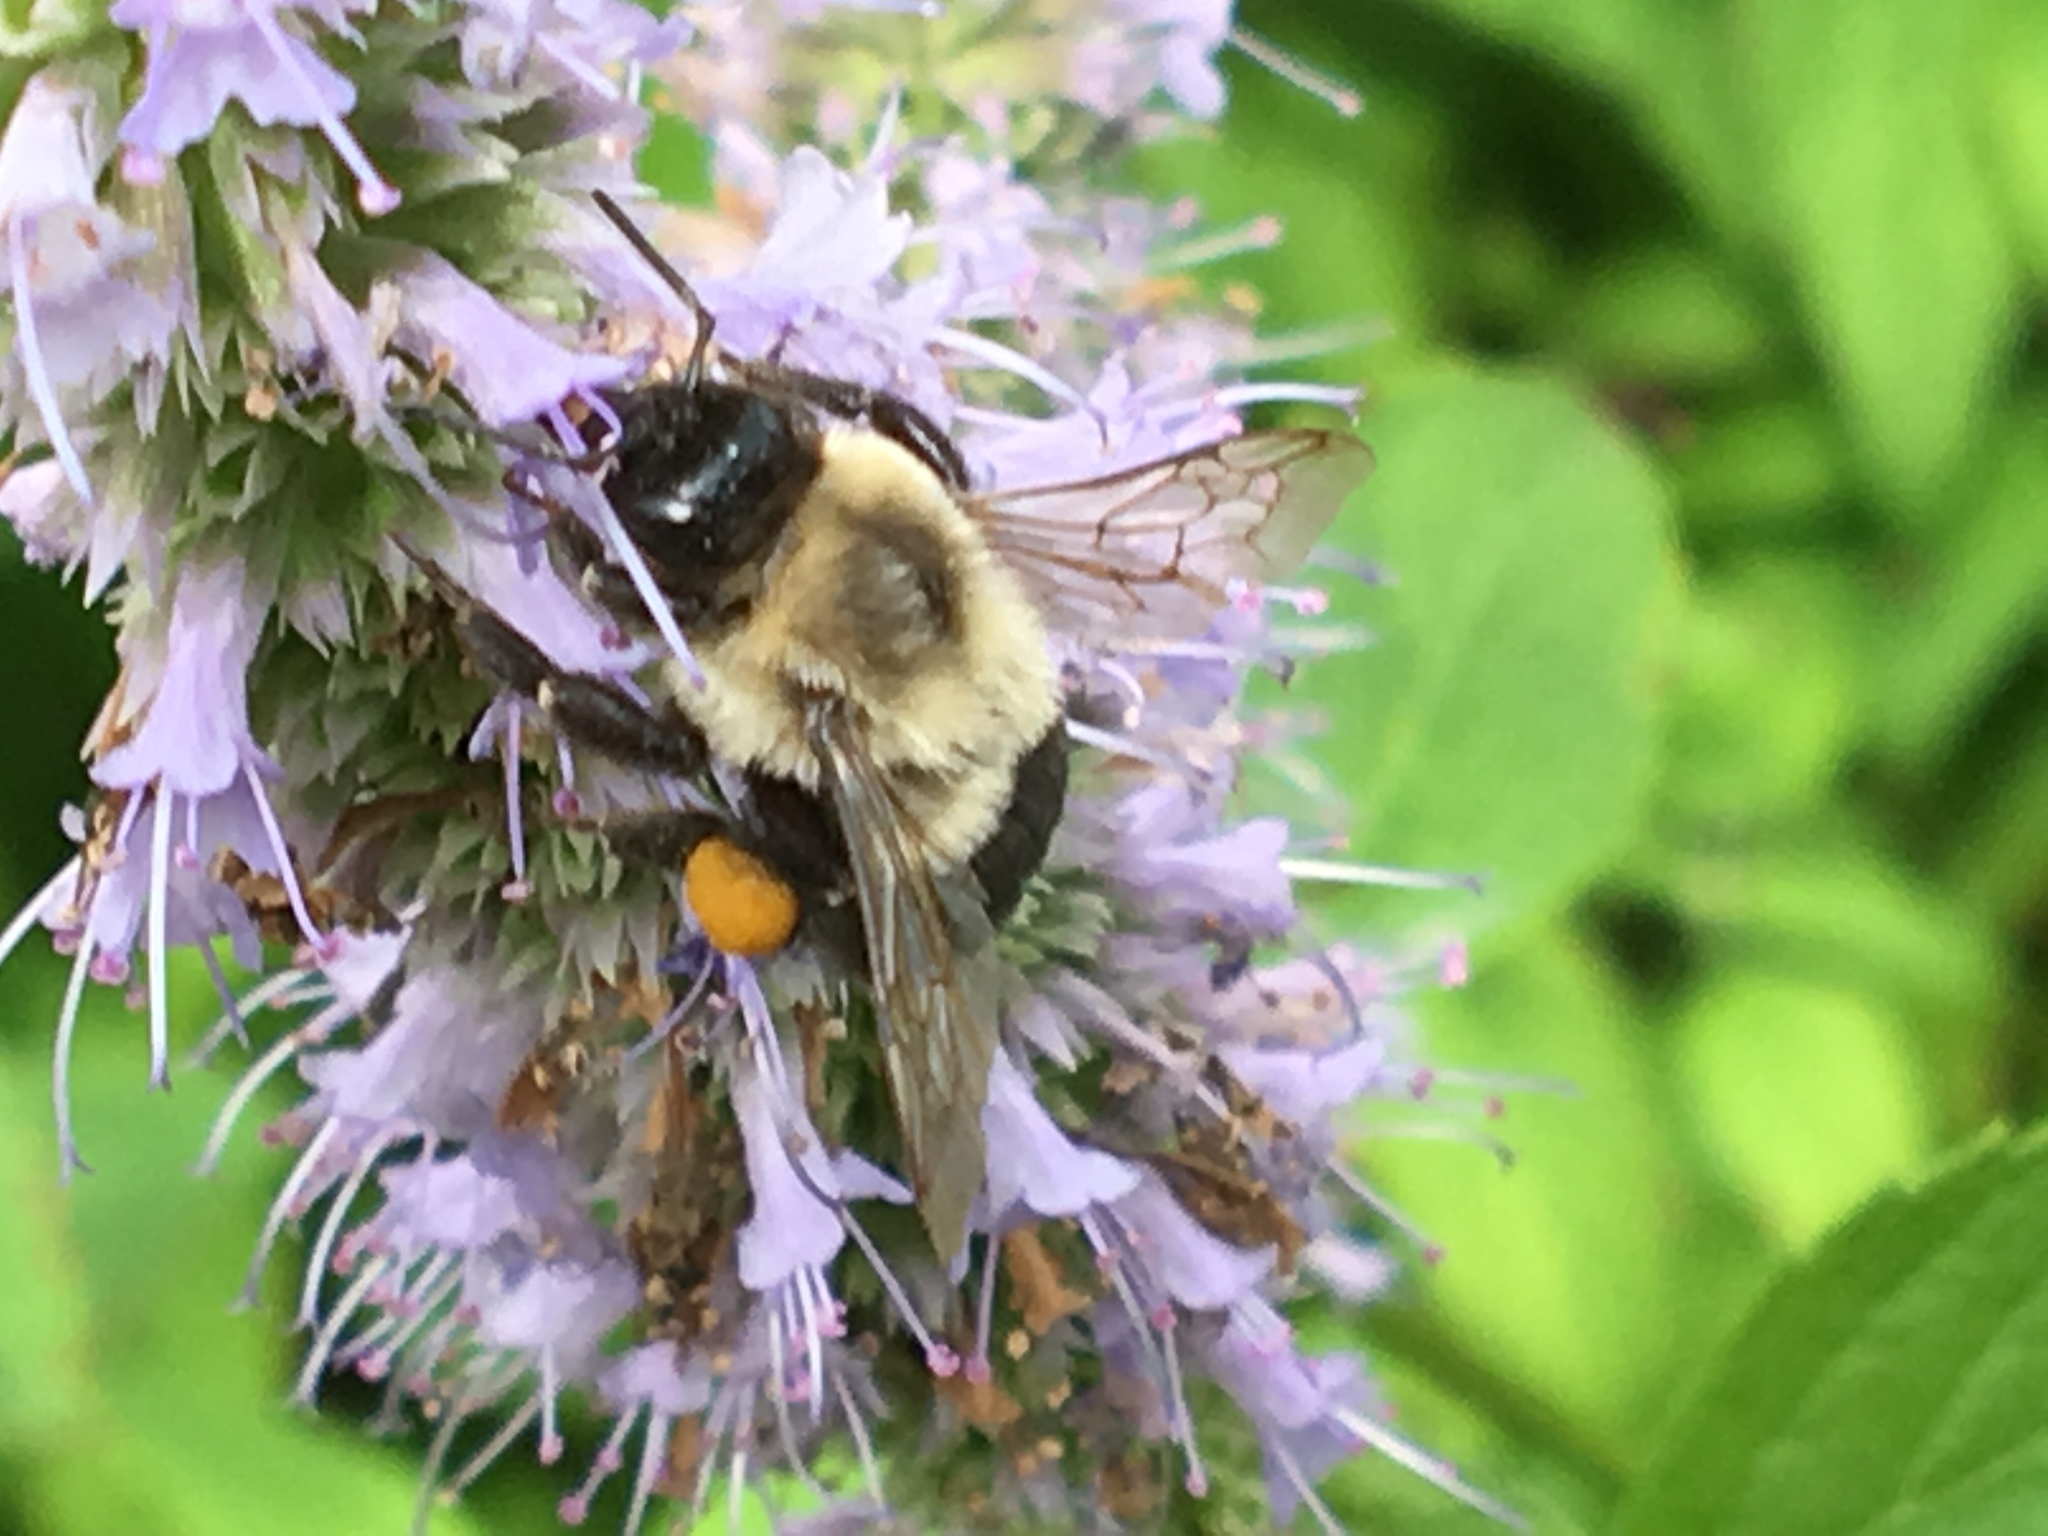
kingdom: Animalia
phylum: Arthropoda
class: Insecta
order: Hymenoptera
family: Apidae
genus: Bombus
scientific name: Bombus impatiens
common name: Common eastern bumble bee
